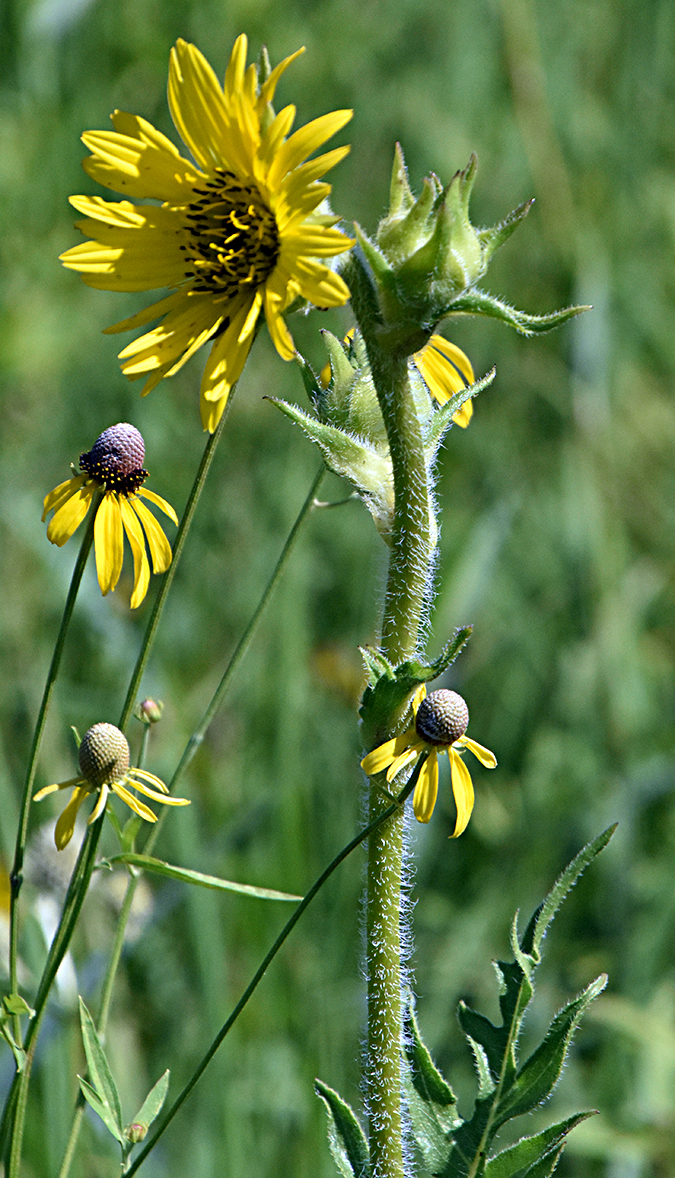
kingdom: Plantae
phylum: Tracheophyta
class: Magnoliopsida
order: Asterales
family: Asteraceae
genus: Silphium
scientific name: Silphium laciniatum
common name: Polarplant
